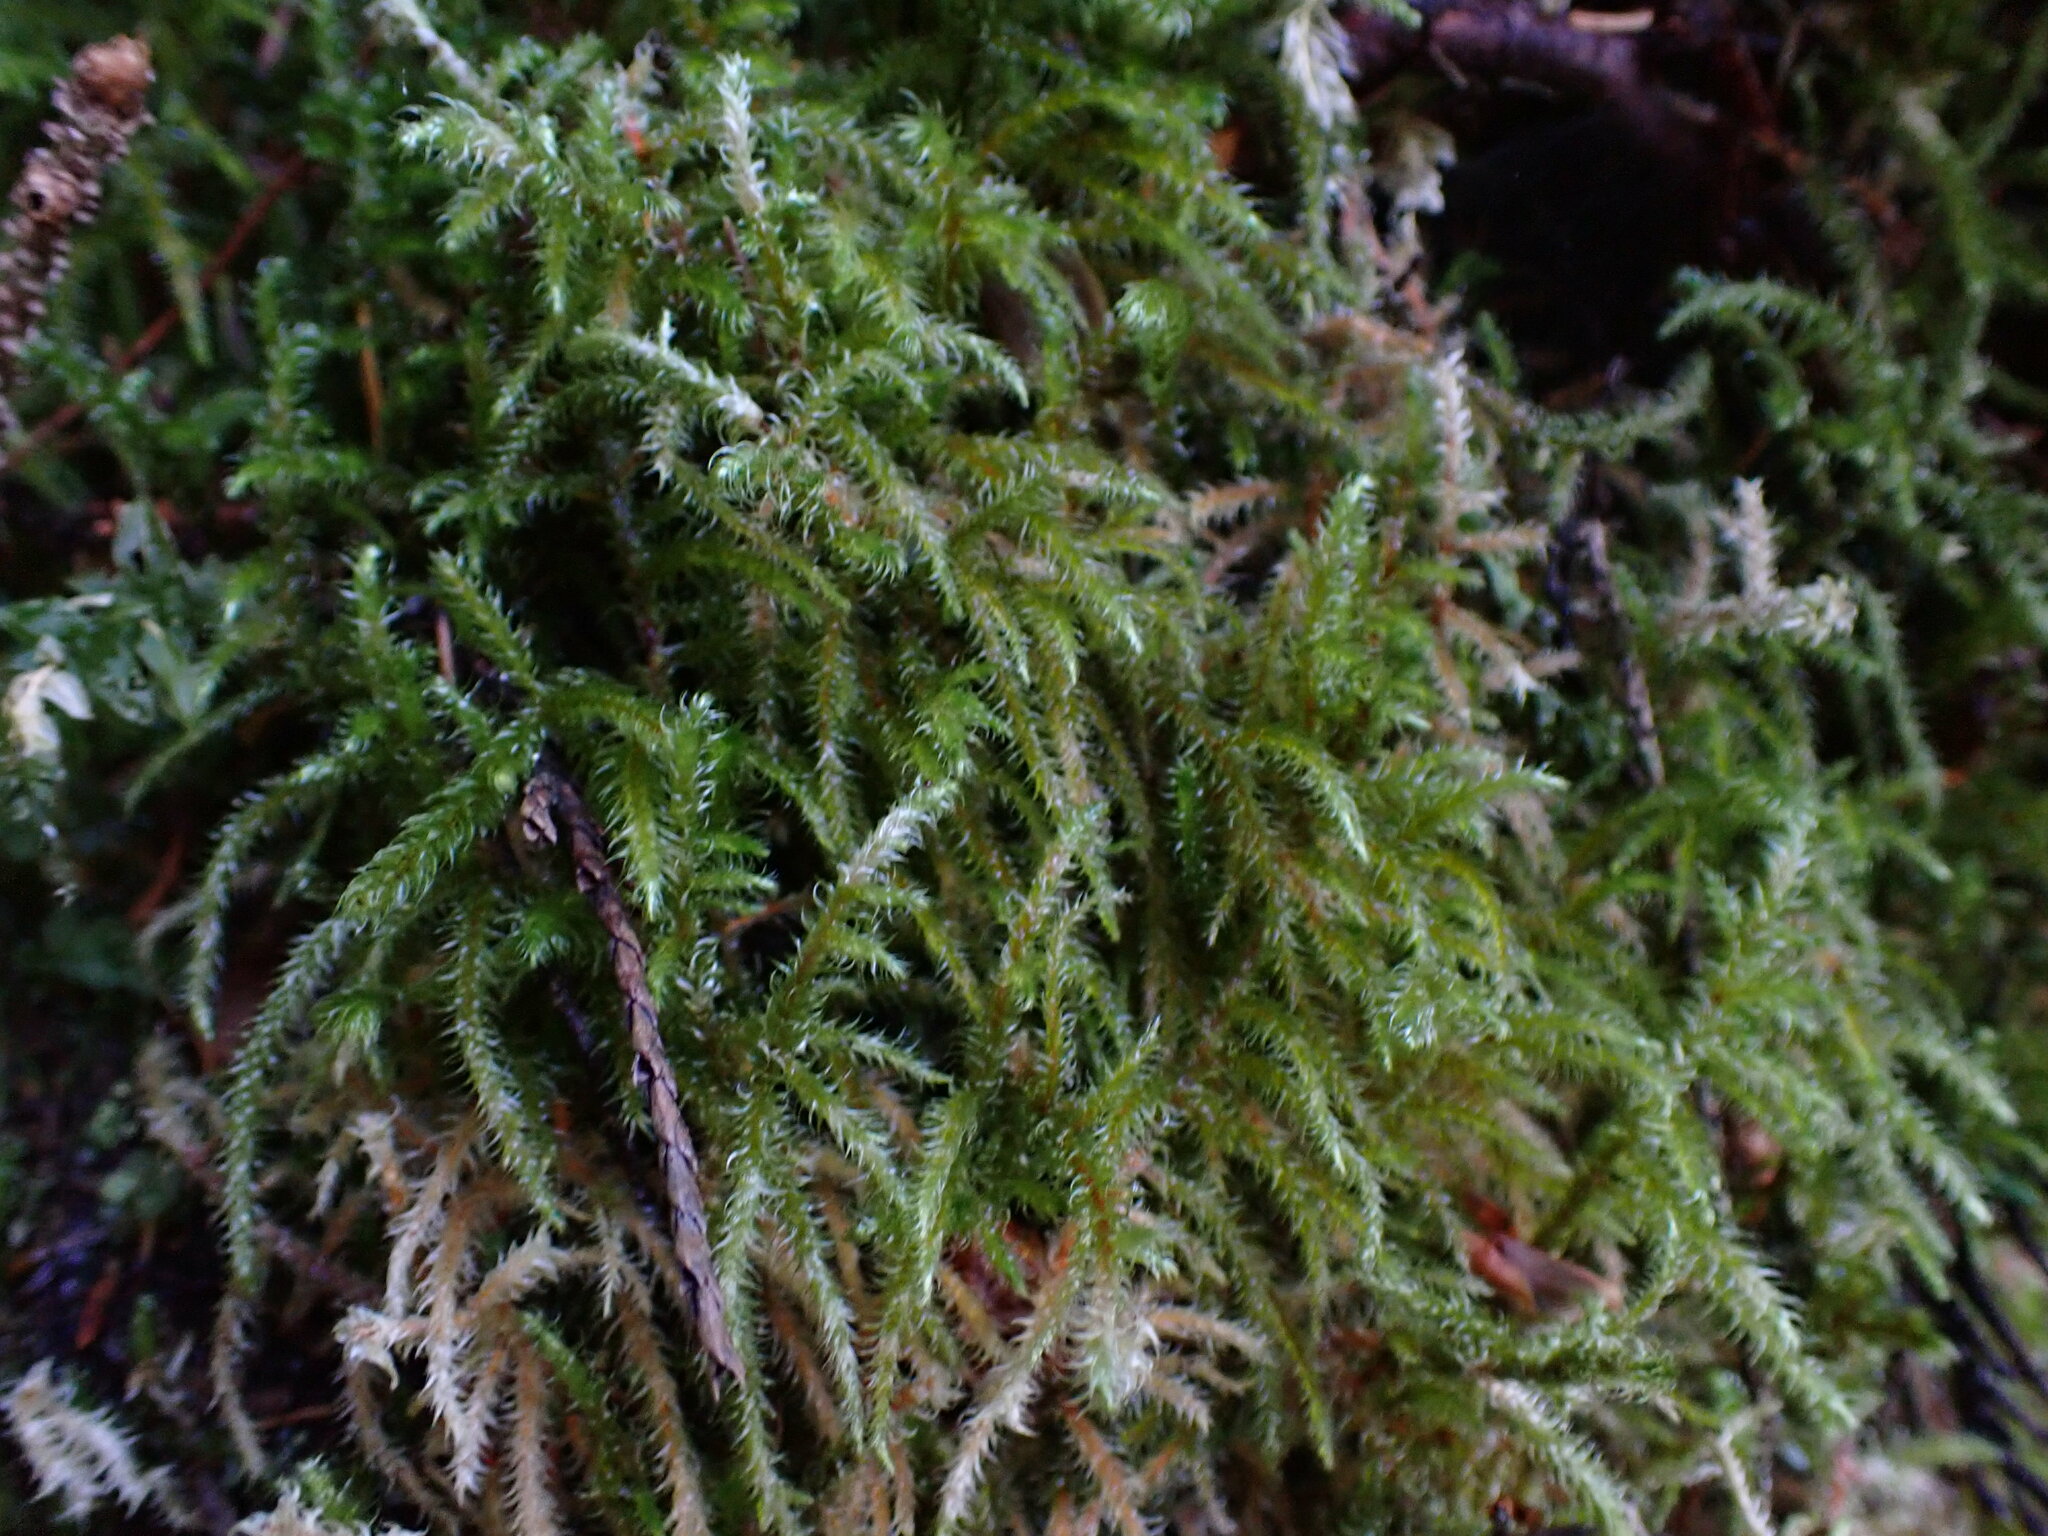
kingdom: Plantae
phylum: Bryophyta
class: Bryopsida
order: Hypnales
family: Hylocomiaceae
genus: Rhytidiadelphus
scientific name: Rhytidiadelphus loreus
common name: Lanky moss
